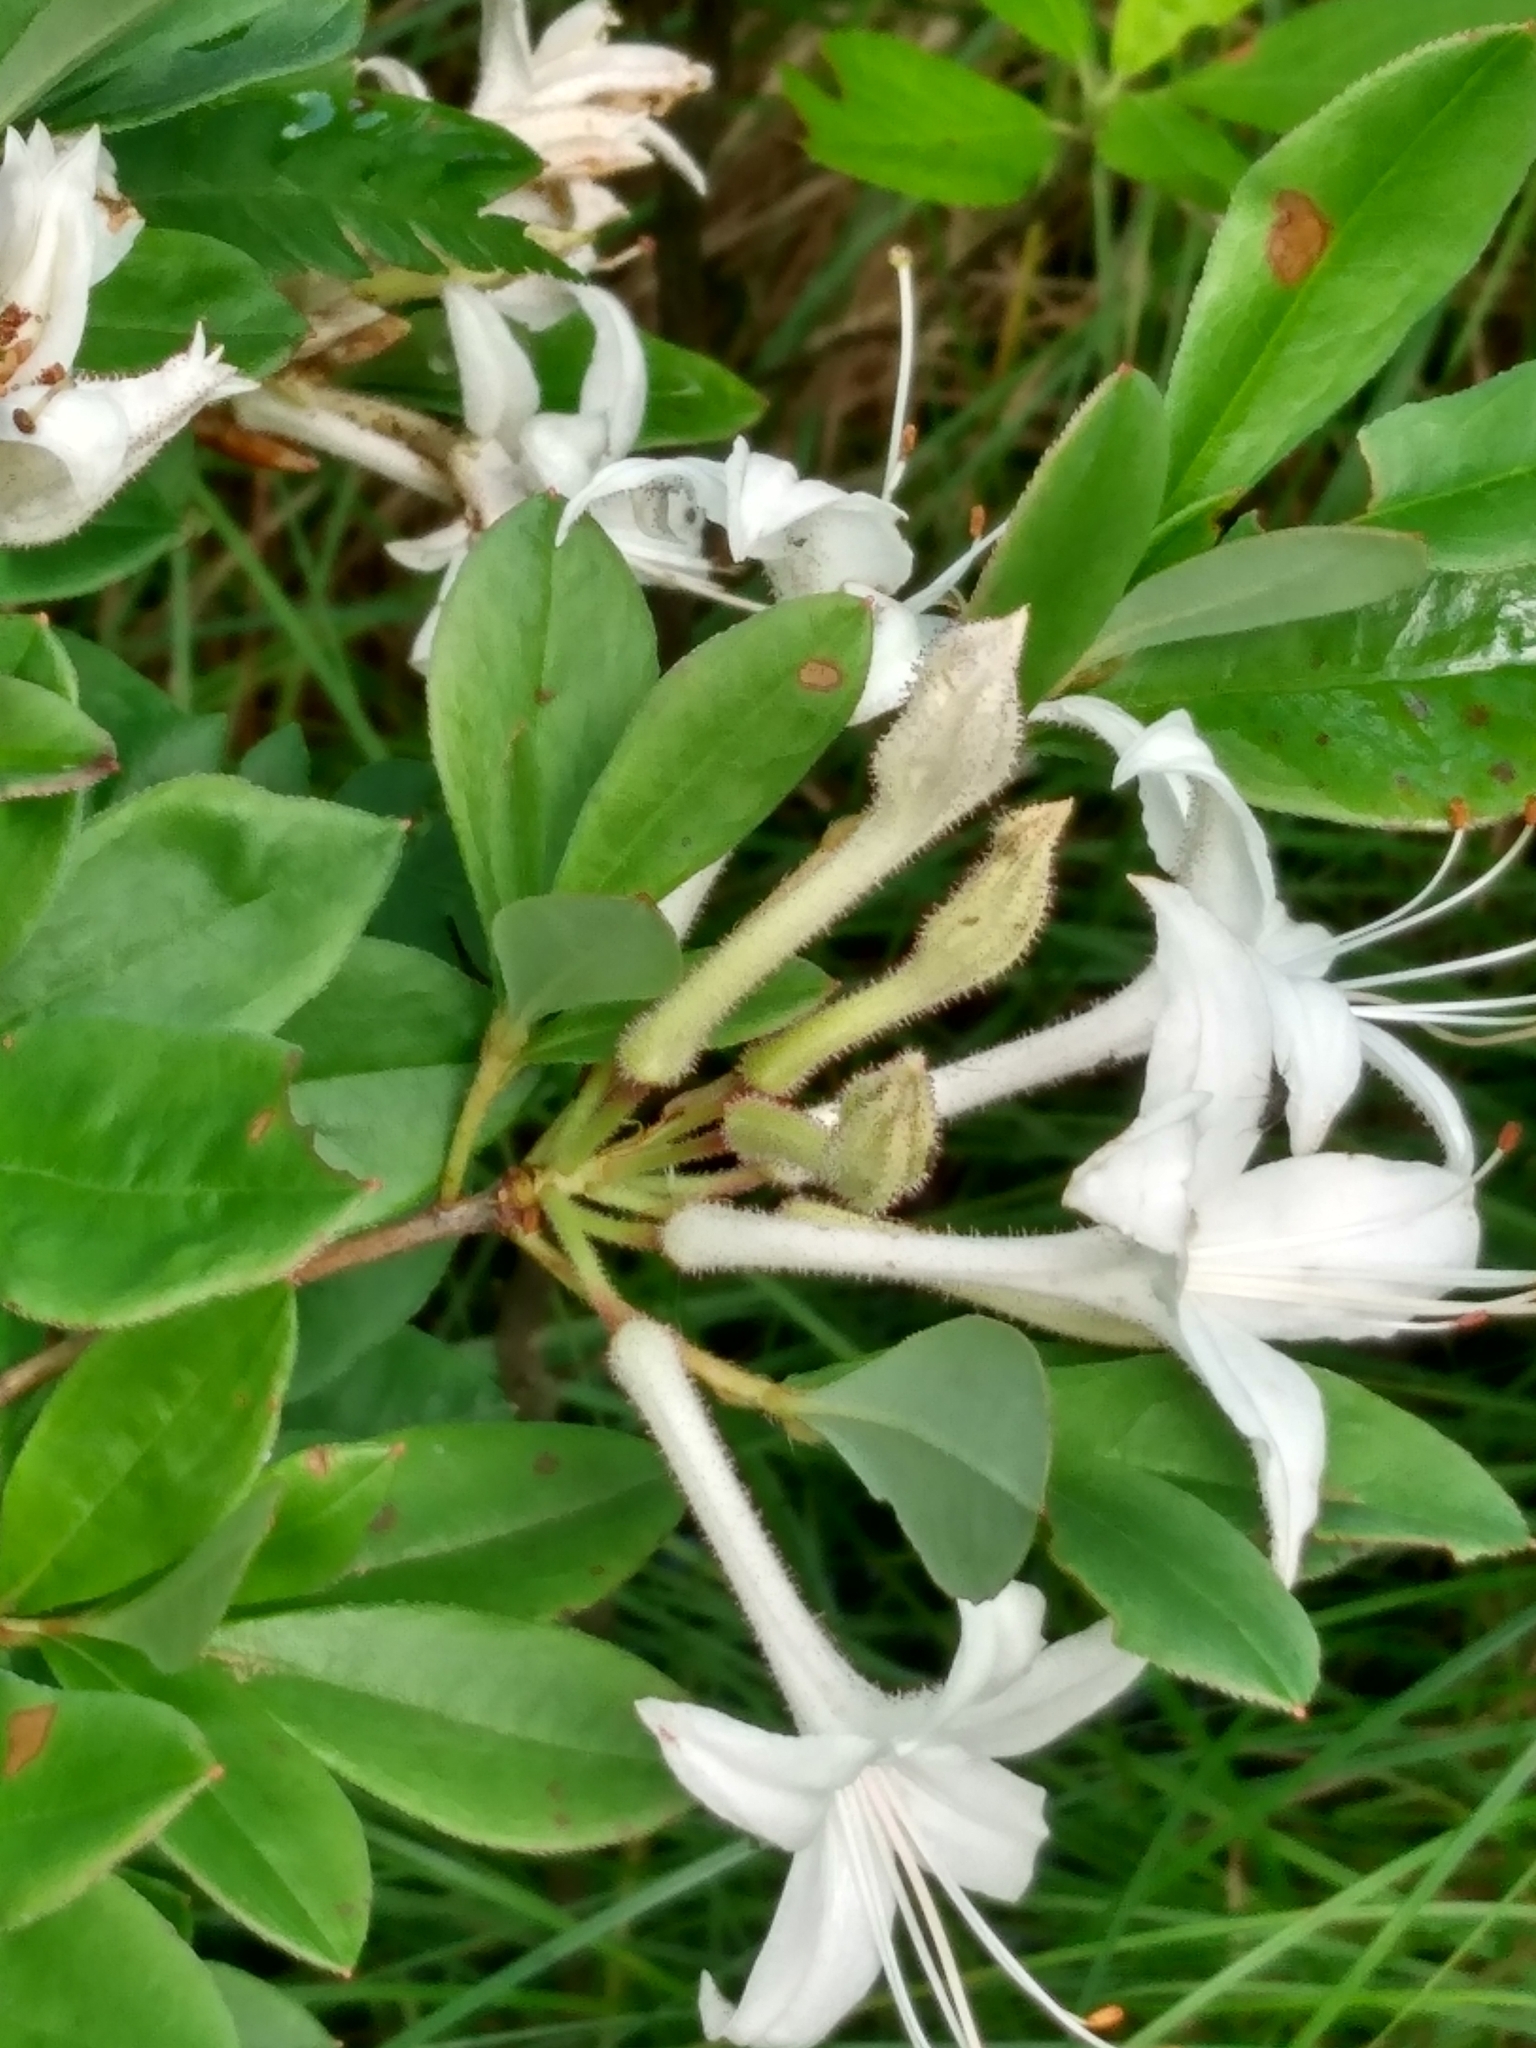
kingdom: Plantae
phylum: Tracheophyta
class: Magnoliopsida
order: Ericales
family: Ericaceae
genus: Rhododendron
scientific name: Rhododendron viscosum
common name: Clammy azalea
